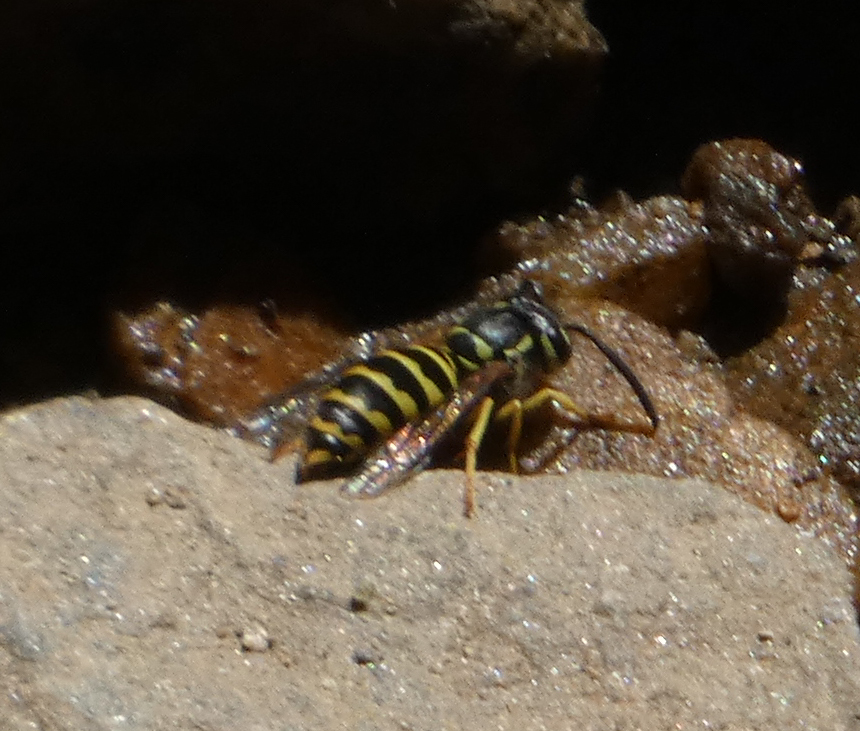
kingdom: Animalia
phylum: Arthropoda
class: Insecta
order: Hymenoptera
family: Vespidae
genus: Vespula
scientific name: Vespula maculifrons
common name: Eastern yellowjacket
